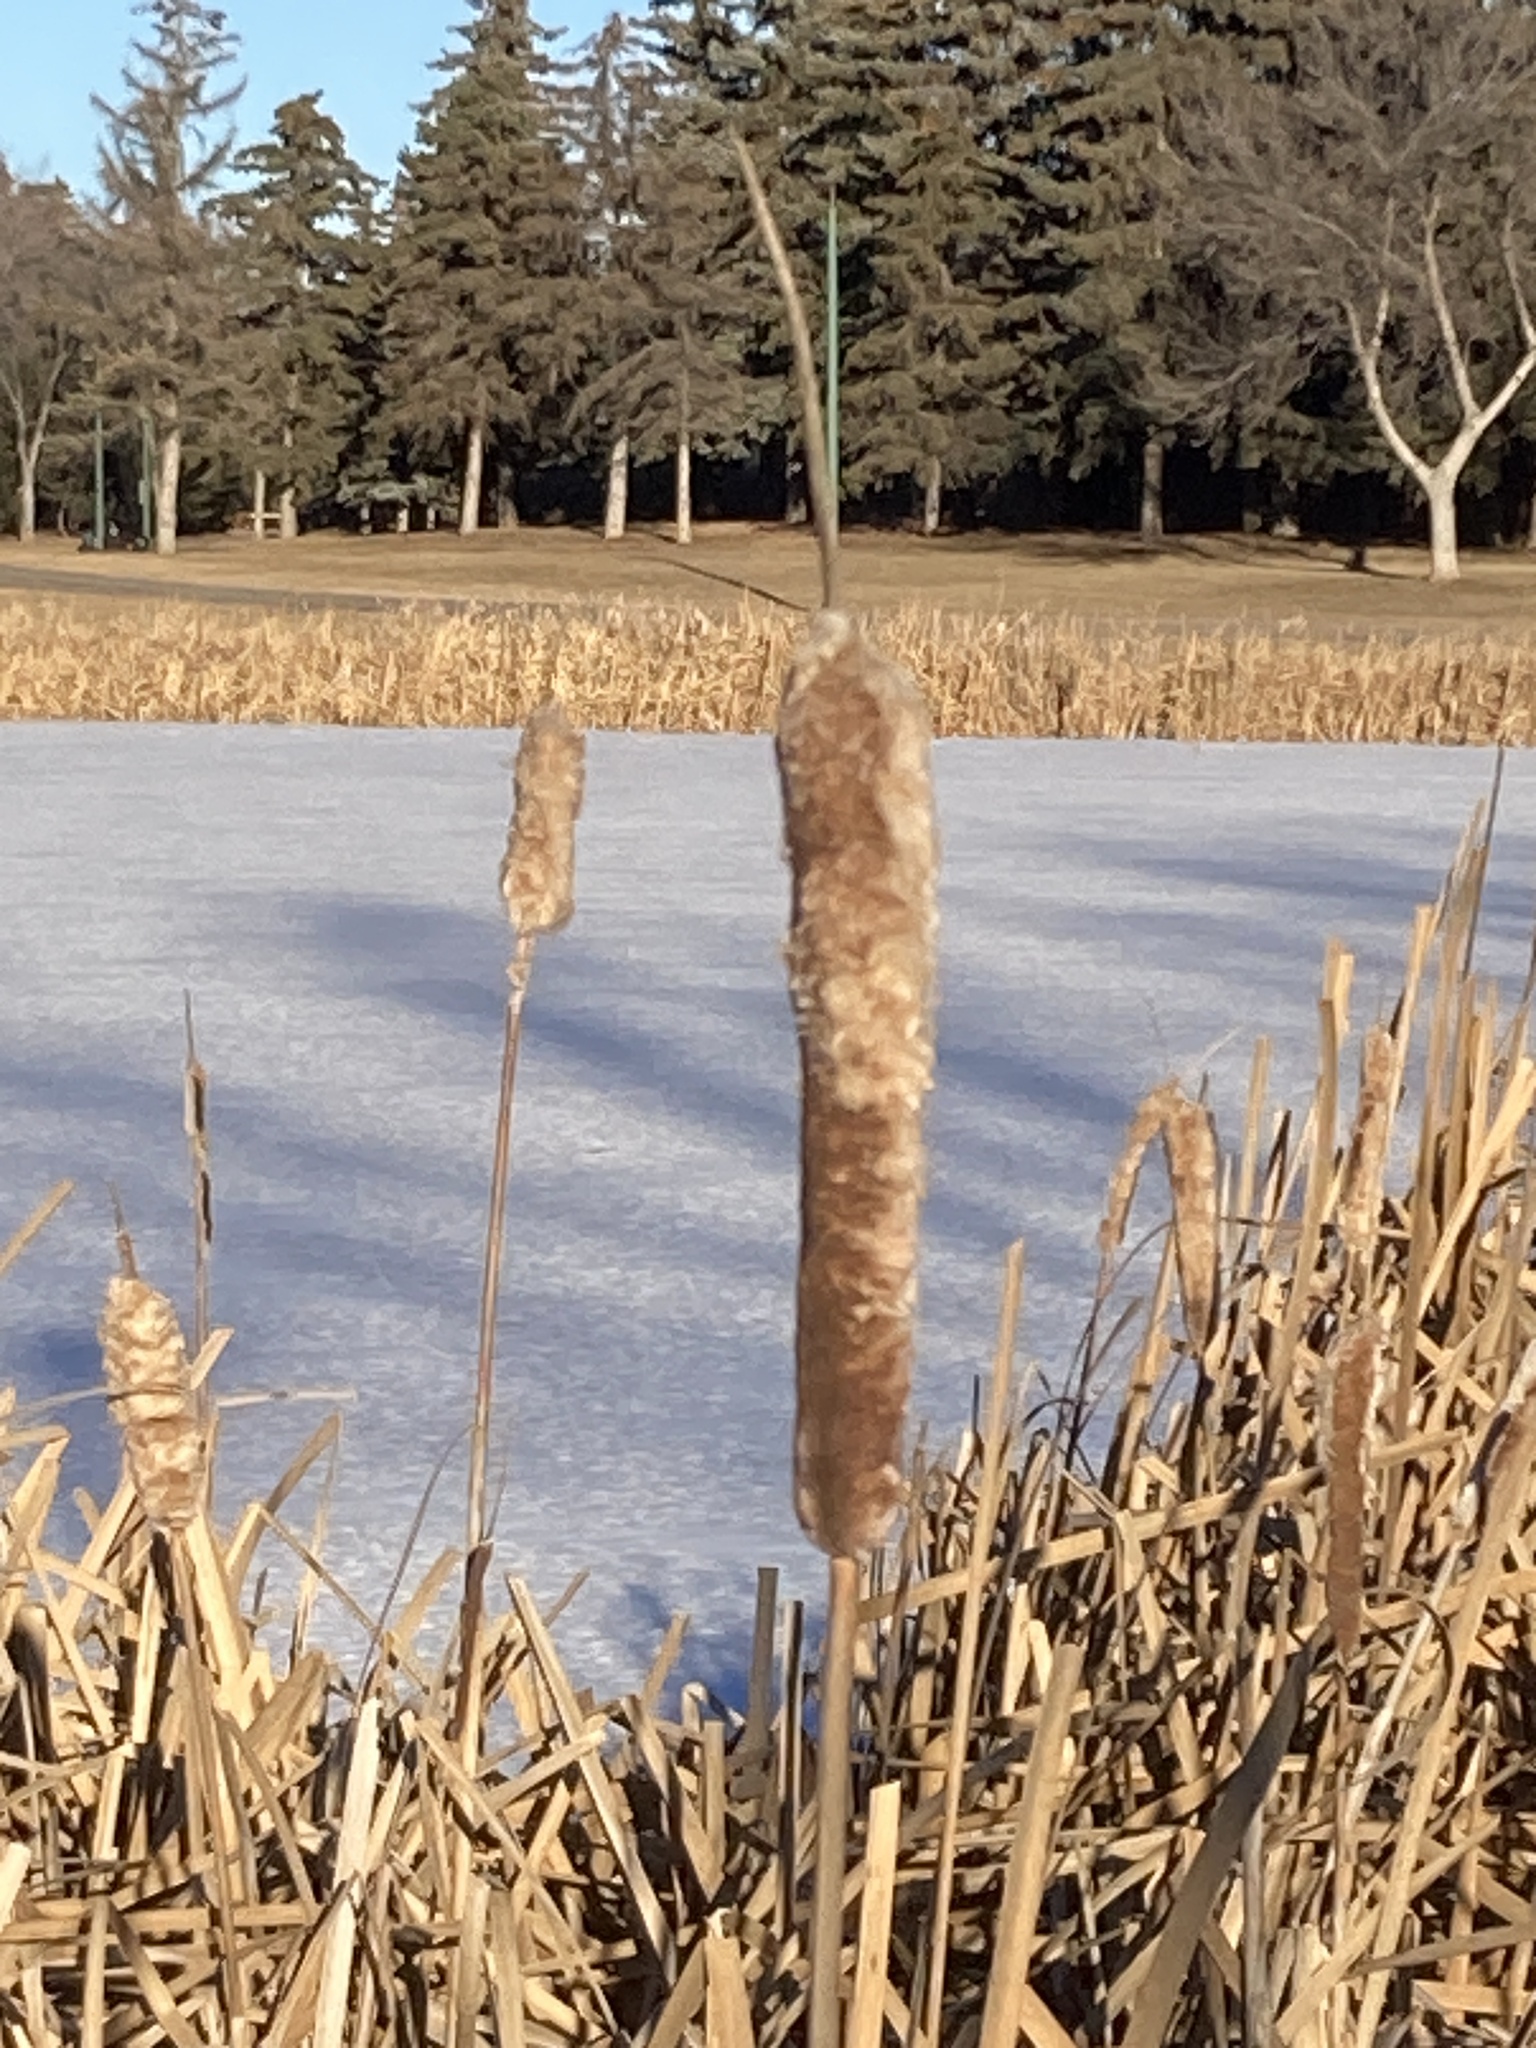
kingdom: Plantae
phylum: Tracheophyta
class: Liliopsida
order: Poales
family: Typhaceae
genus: Typha
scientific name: Typha latifolia
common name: Broadleaf cattail
